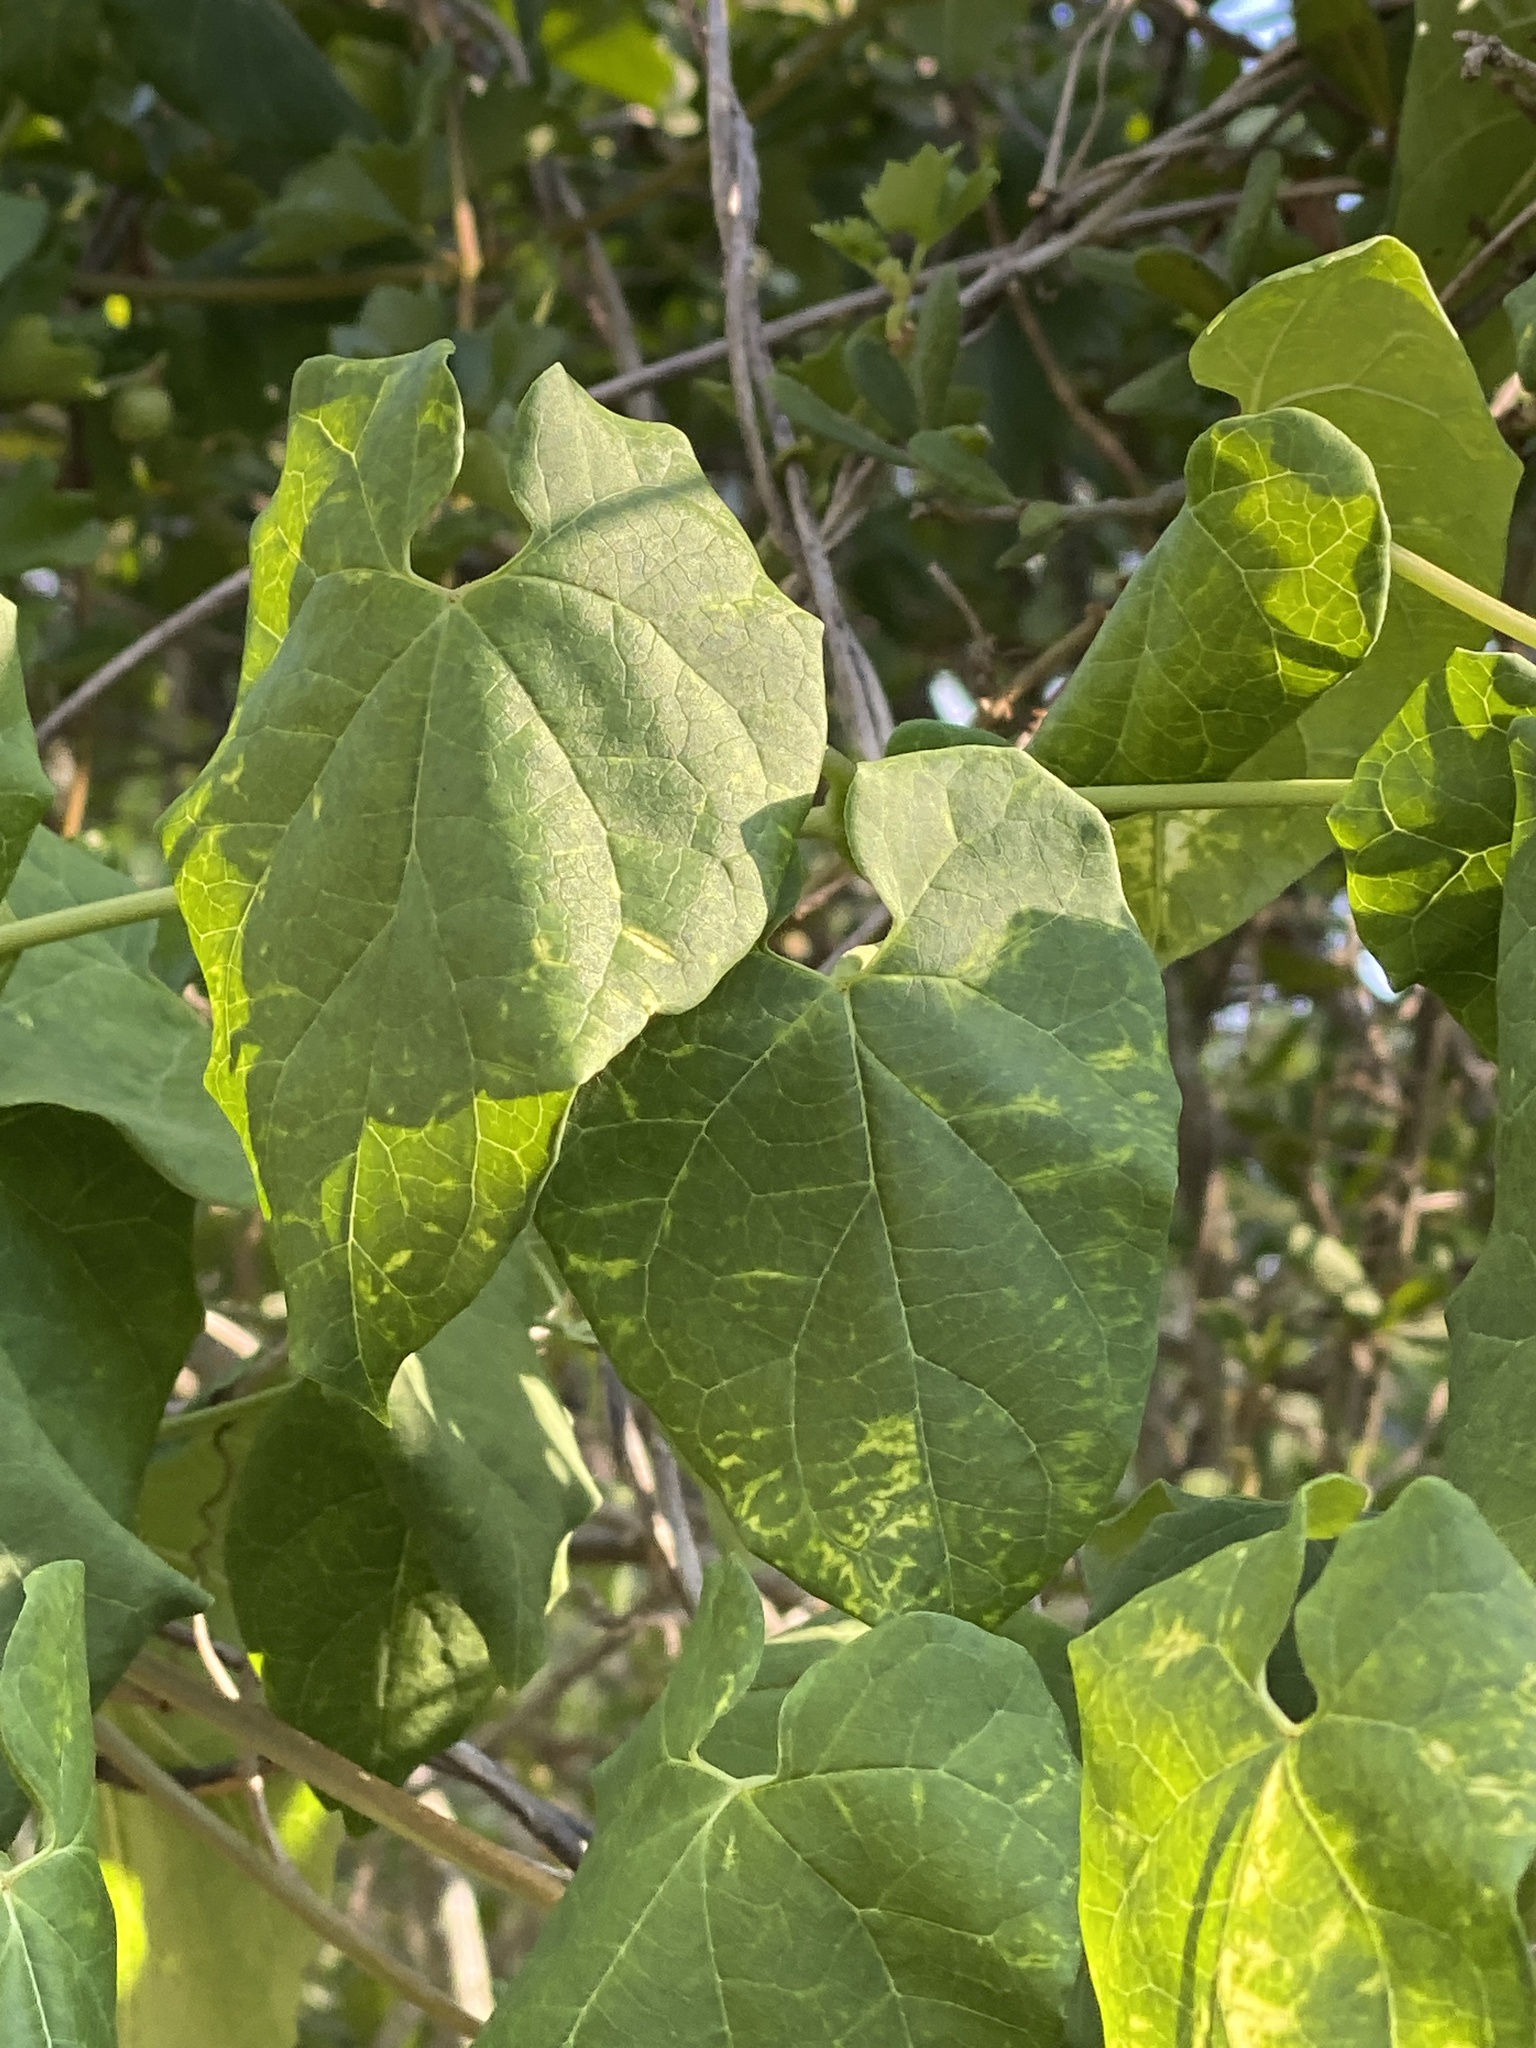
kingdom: Plantae
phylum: Tracheophyta
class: Magnoliopsida
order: Gentianales
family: Apocynaceae
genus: Cynanchum
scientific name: Cynanchum racemosum
